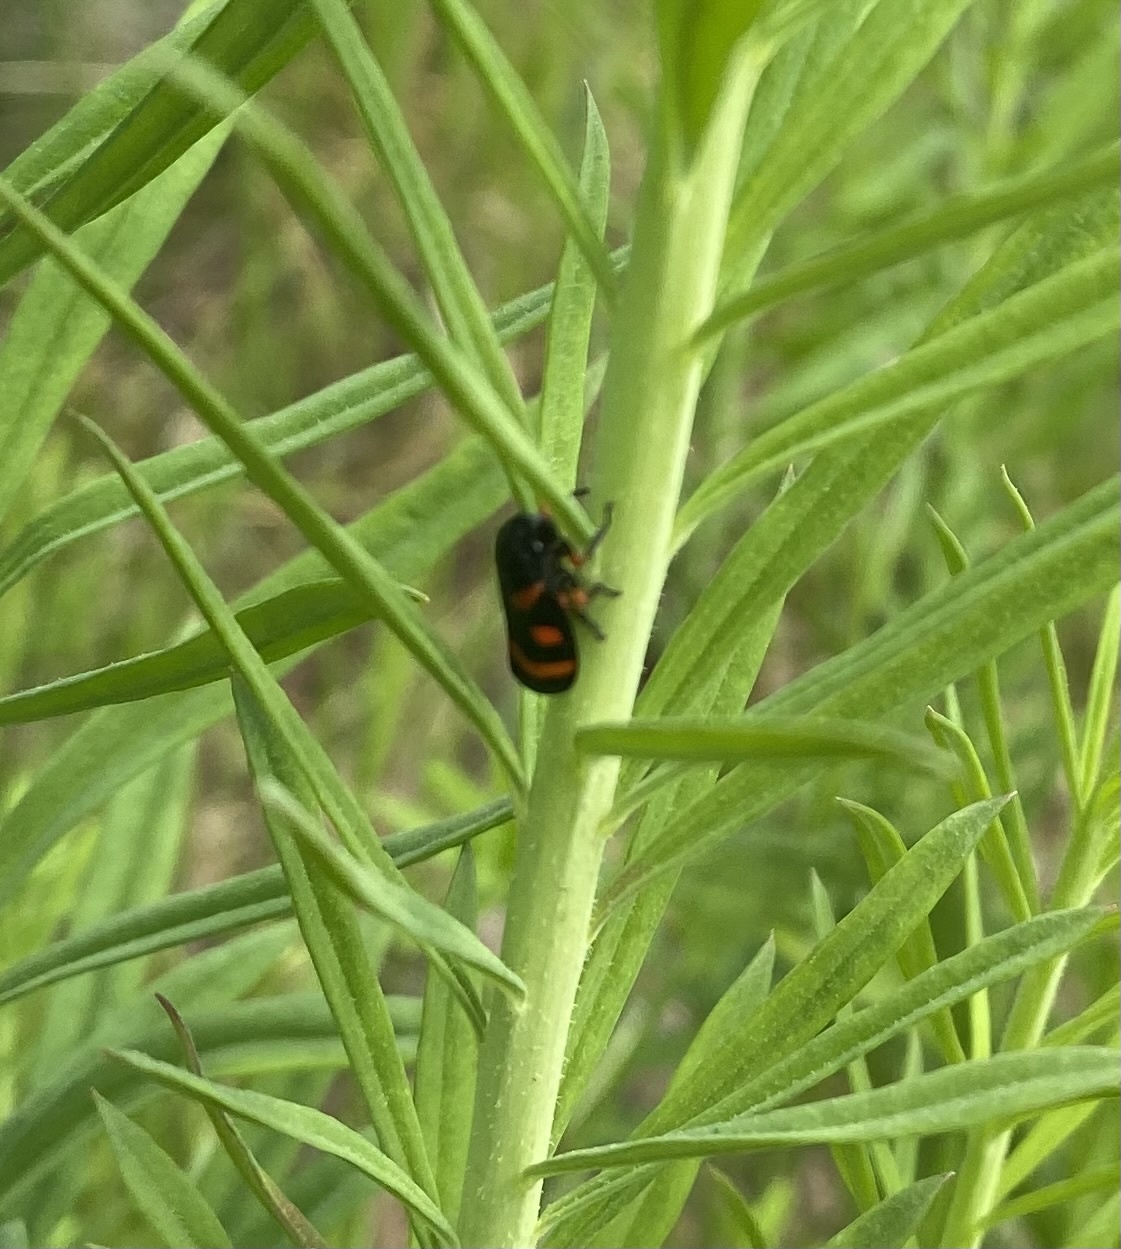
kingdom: Animalia
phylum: Arthropoda
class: Insecta
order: Hemiptera
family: Cercopidae
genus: Cercopis
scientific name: Cercopis intermedia
